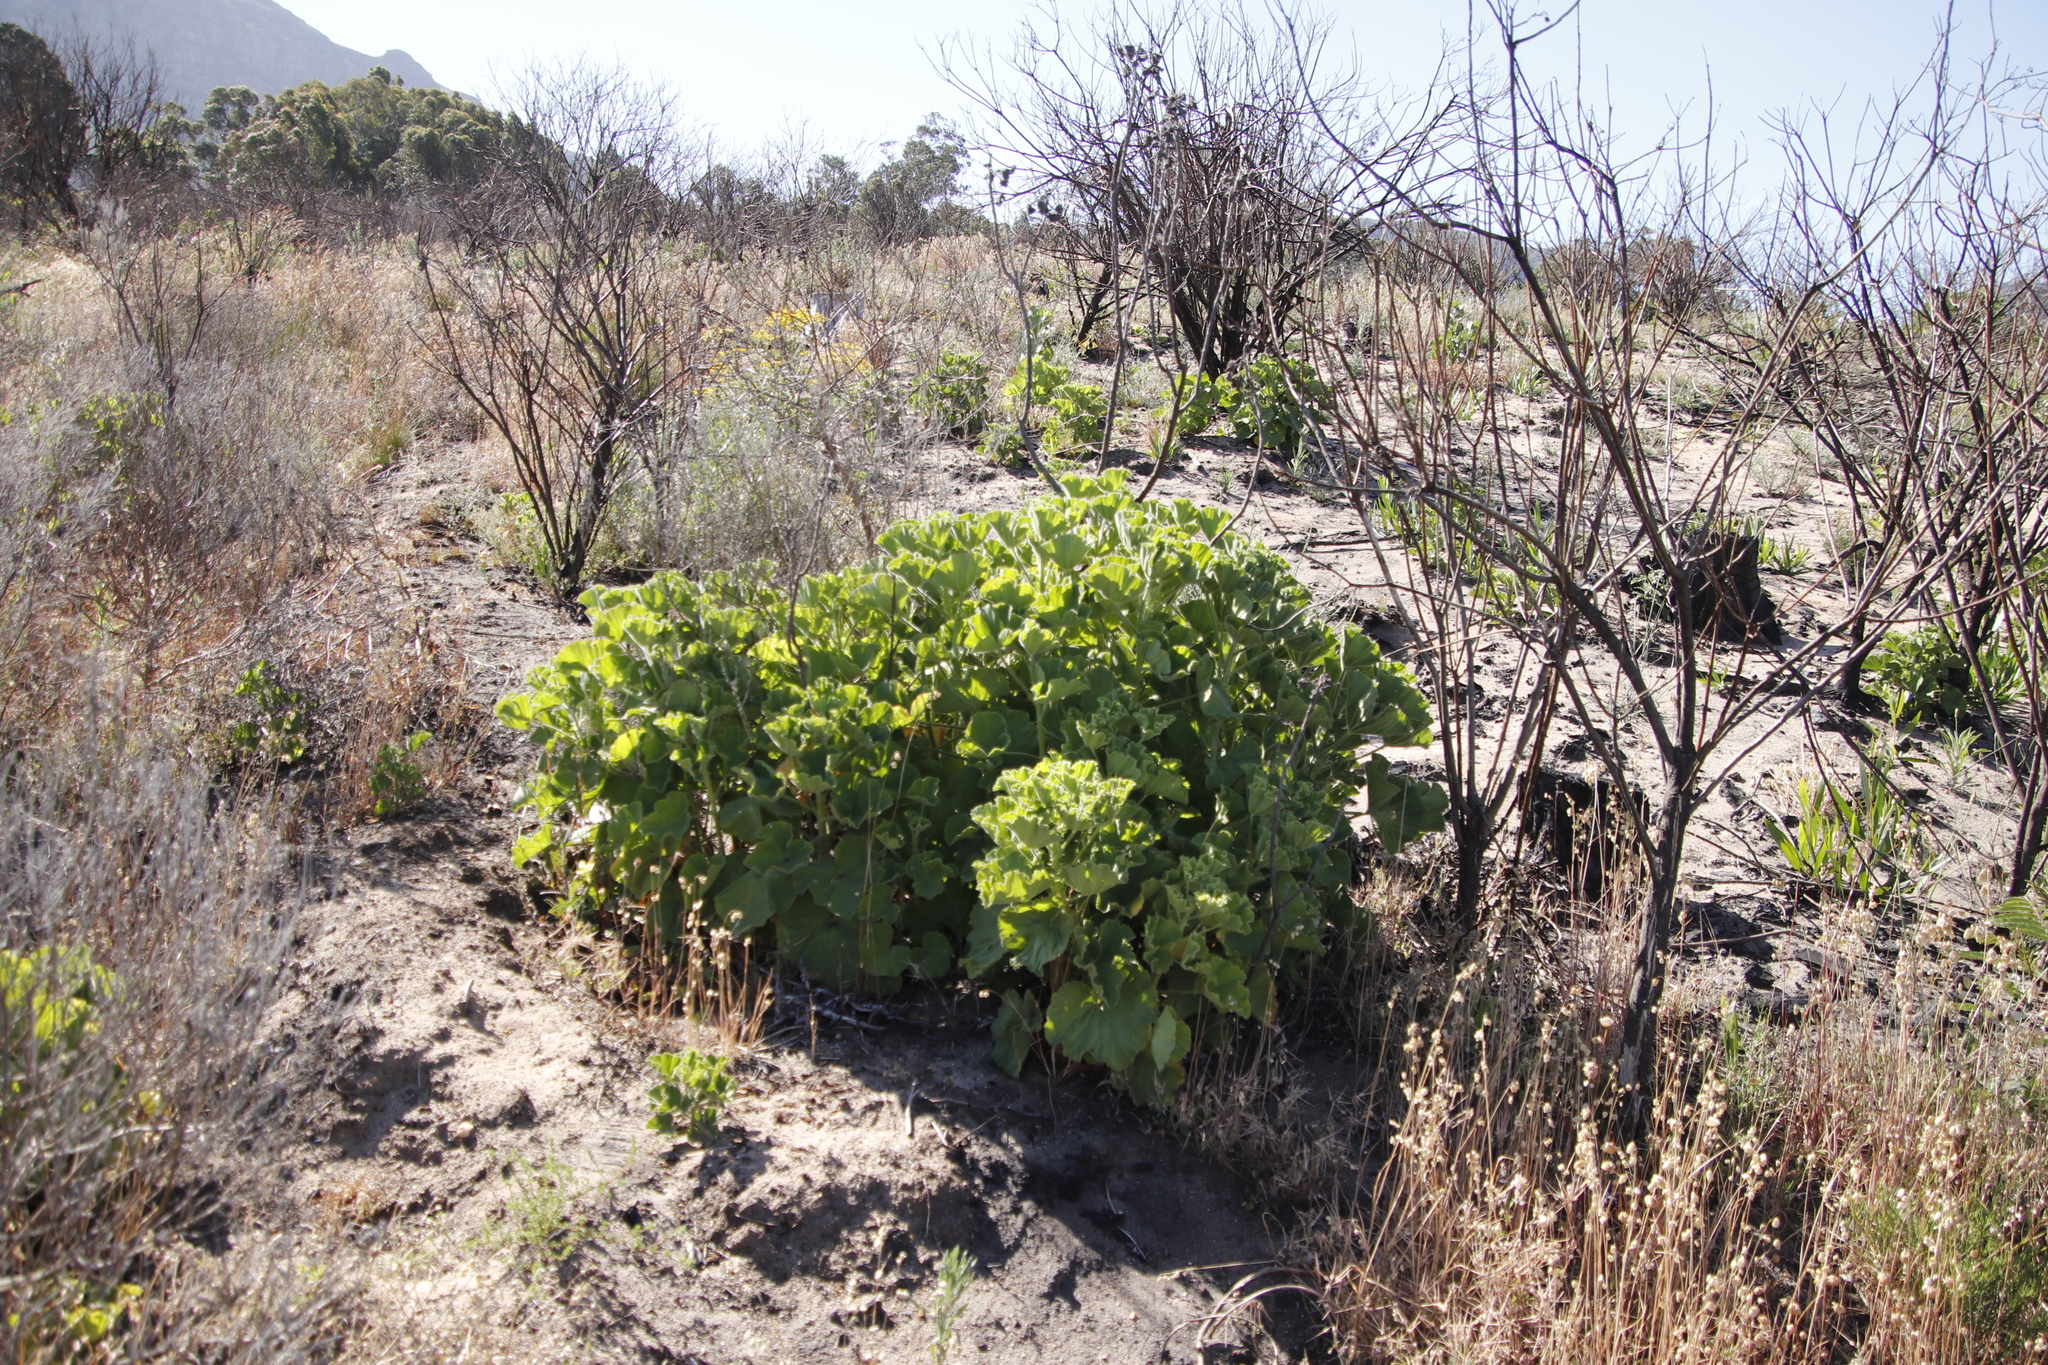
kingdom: Plantae
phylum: Tracheophyta
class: Magnoliopsida
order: Geraniales
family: Geraniaceae
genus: Pelargonium
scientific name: Pelargonium cucullatum
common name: Tree pelargonium
